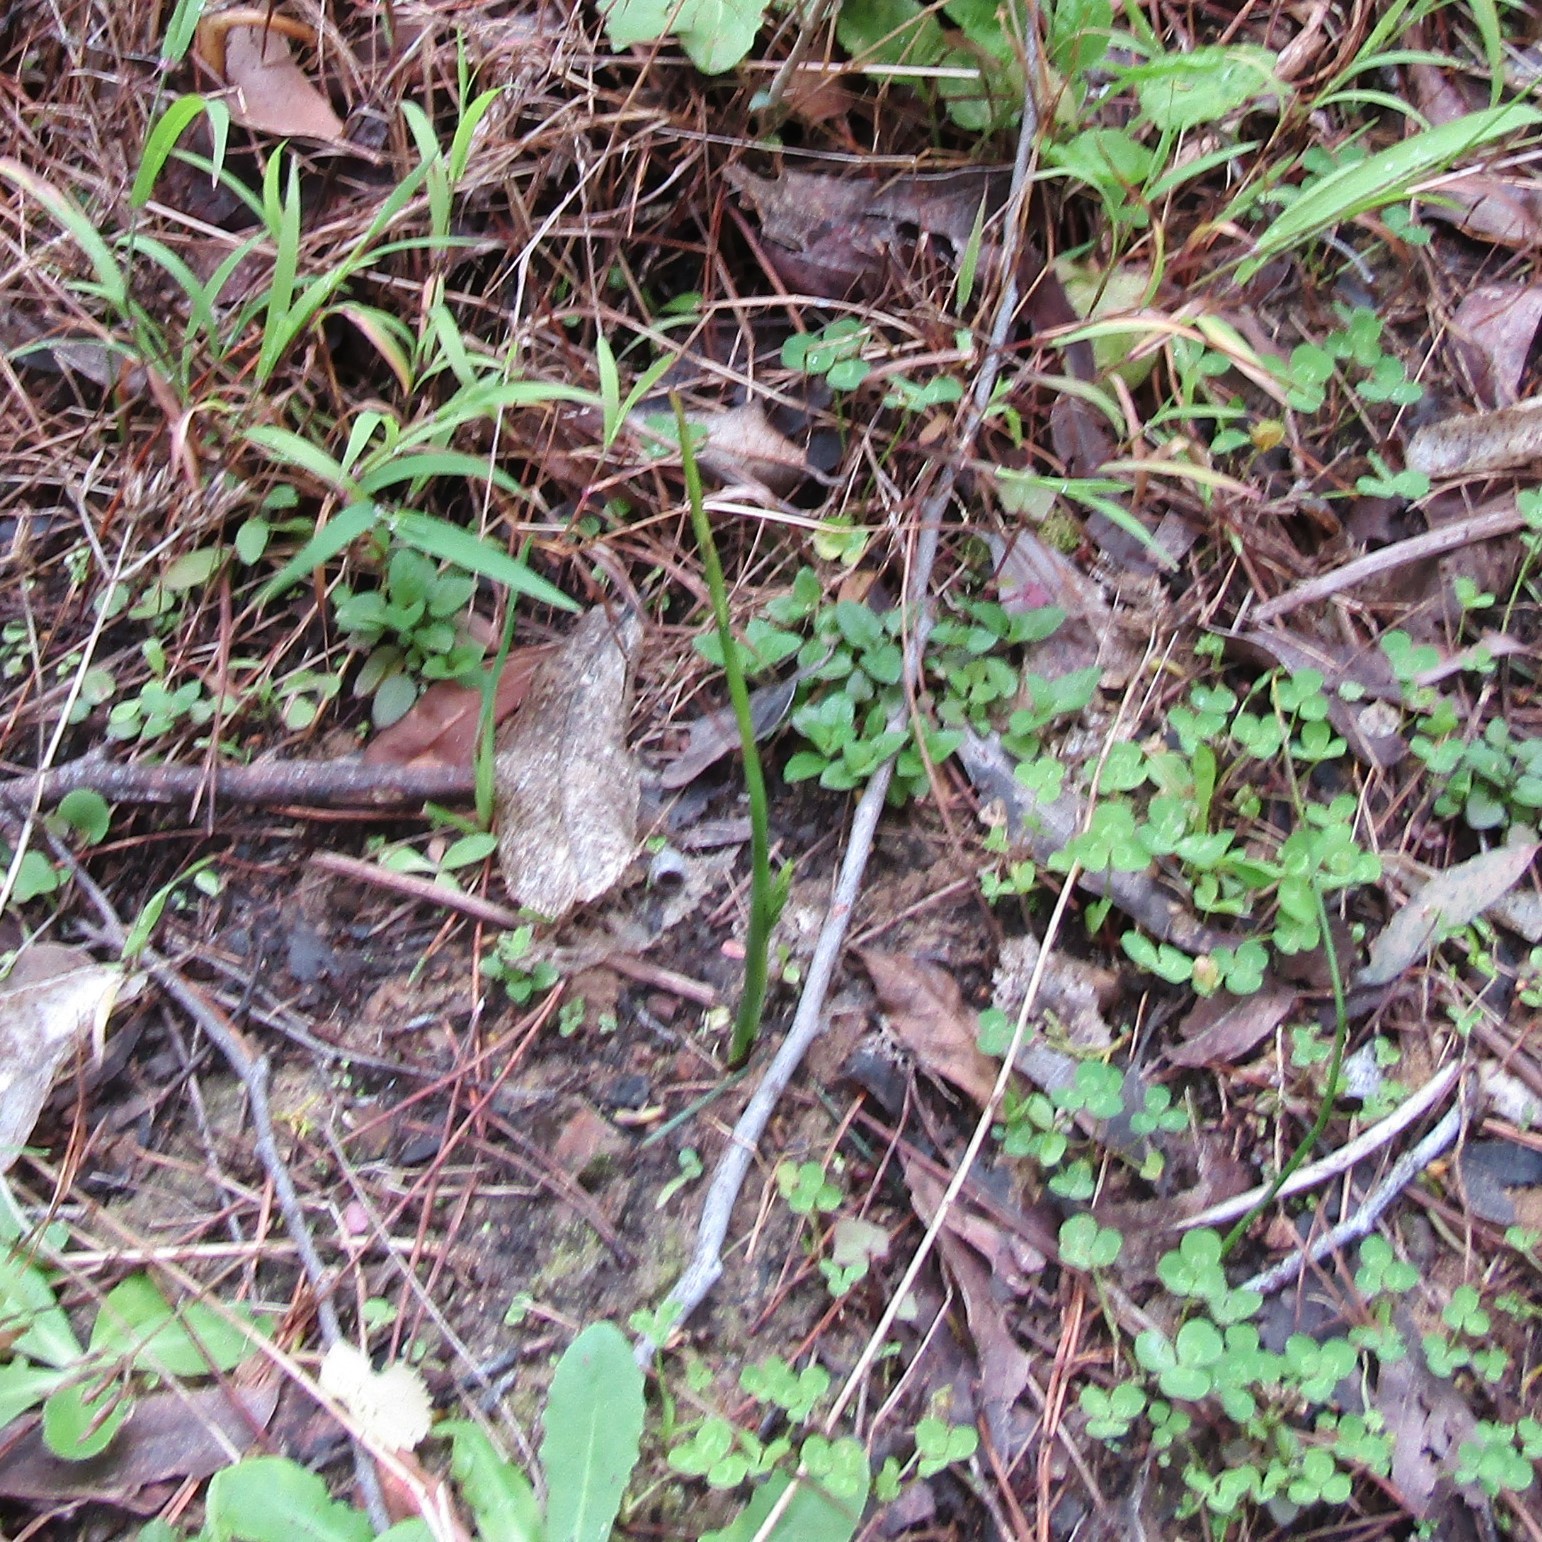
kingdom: Plantae
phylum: Tracheophyta
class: Liliopsida
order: Asparagales
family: Orchidaceae
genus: Microtis
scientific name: Microtis unifolia
